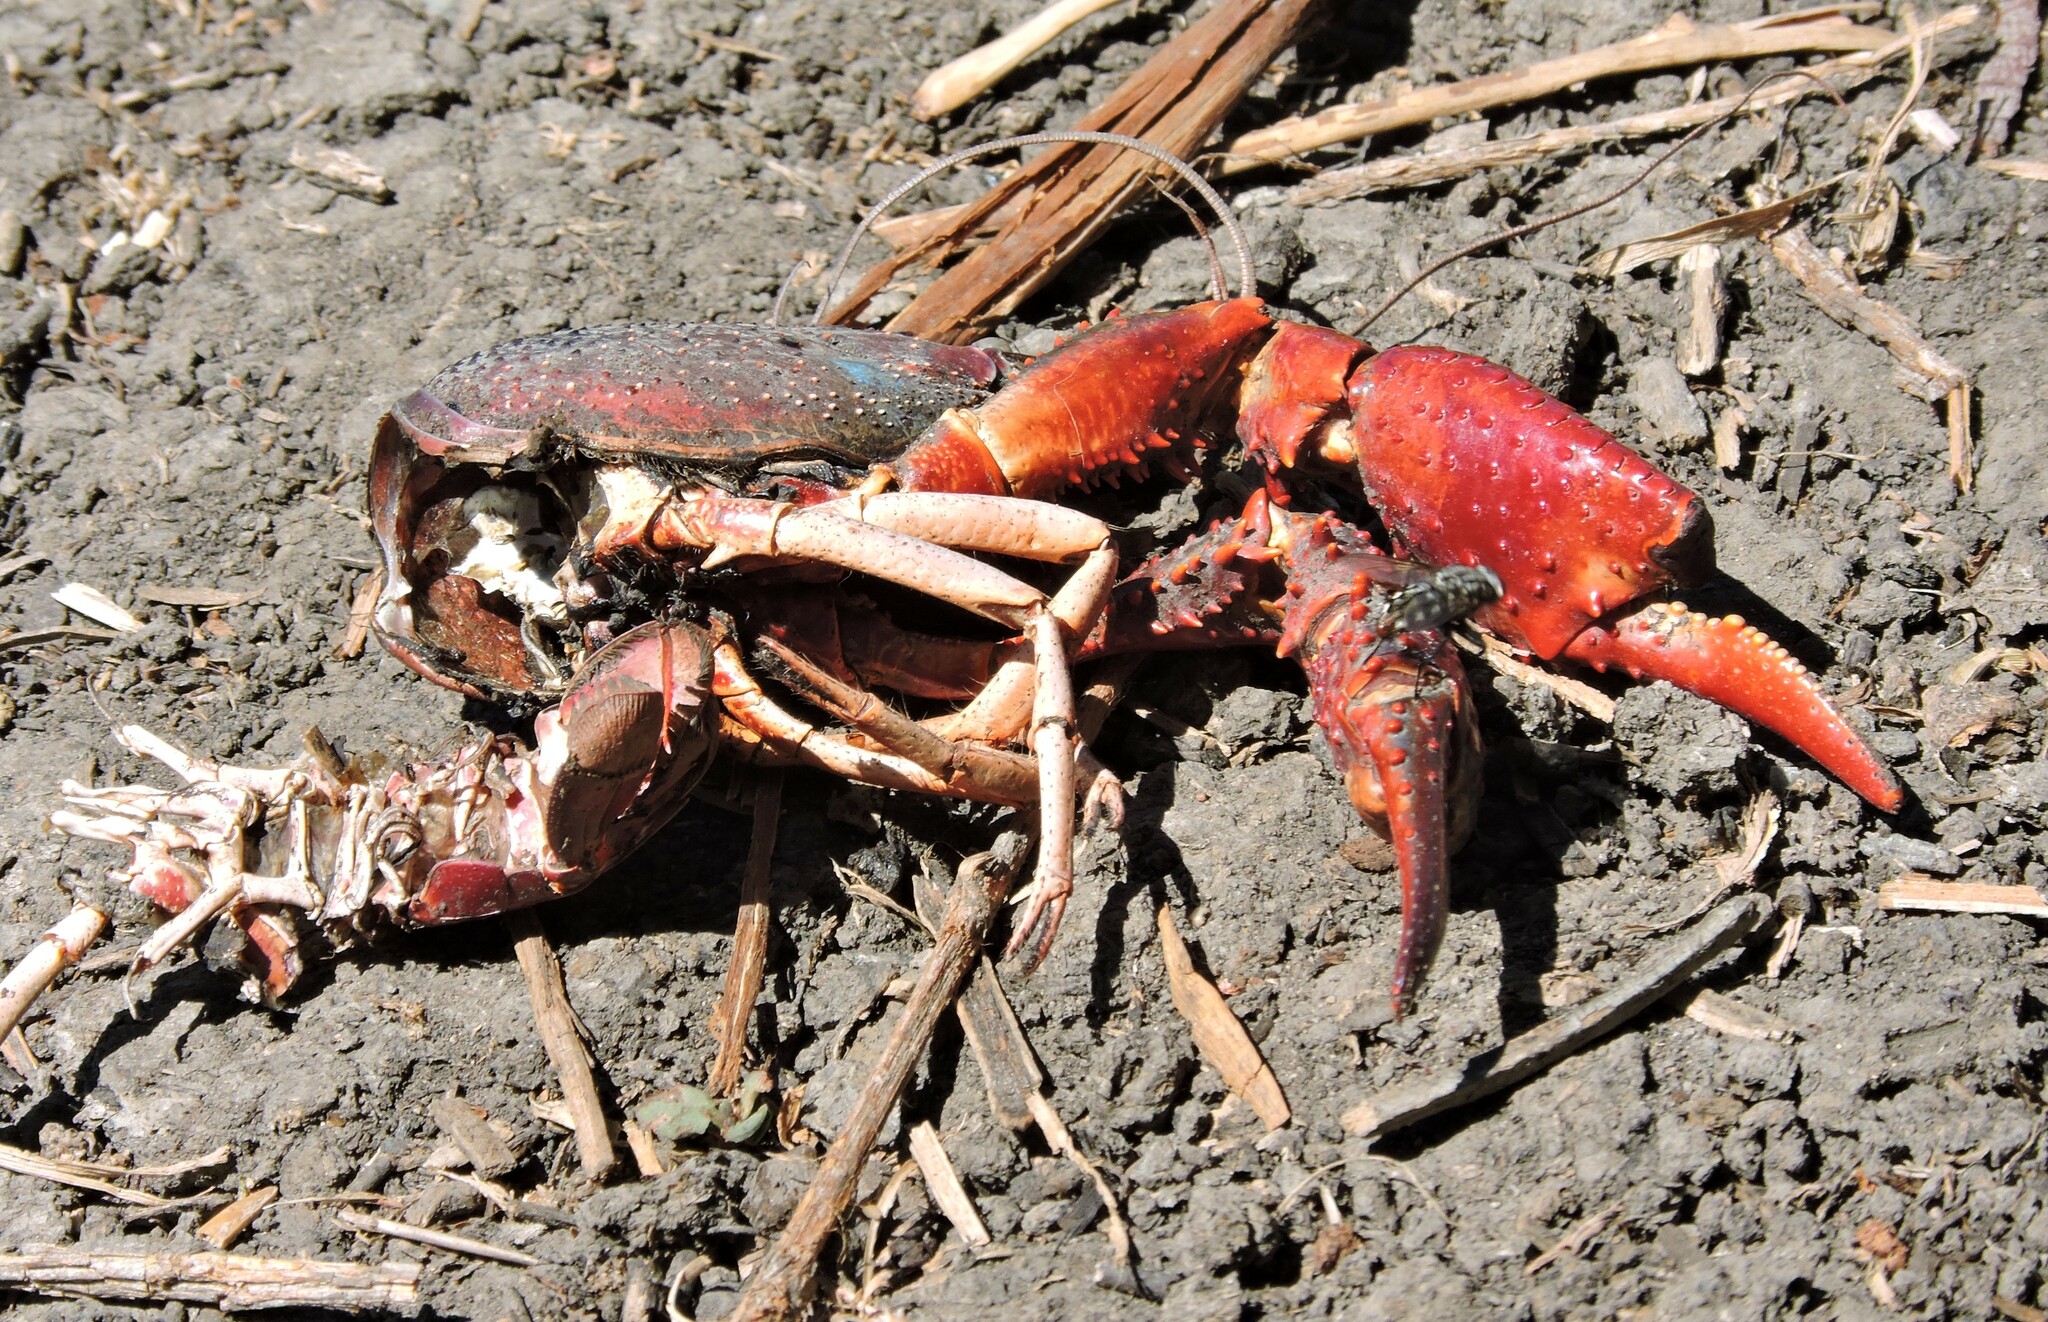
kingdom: Animalia
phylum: Arthropoda
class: Malacostraca
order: Decapoda
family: Cambaridae
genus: Procambarus
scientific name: Procambarus clarkii
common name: Red swamp crayfish
